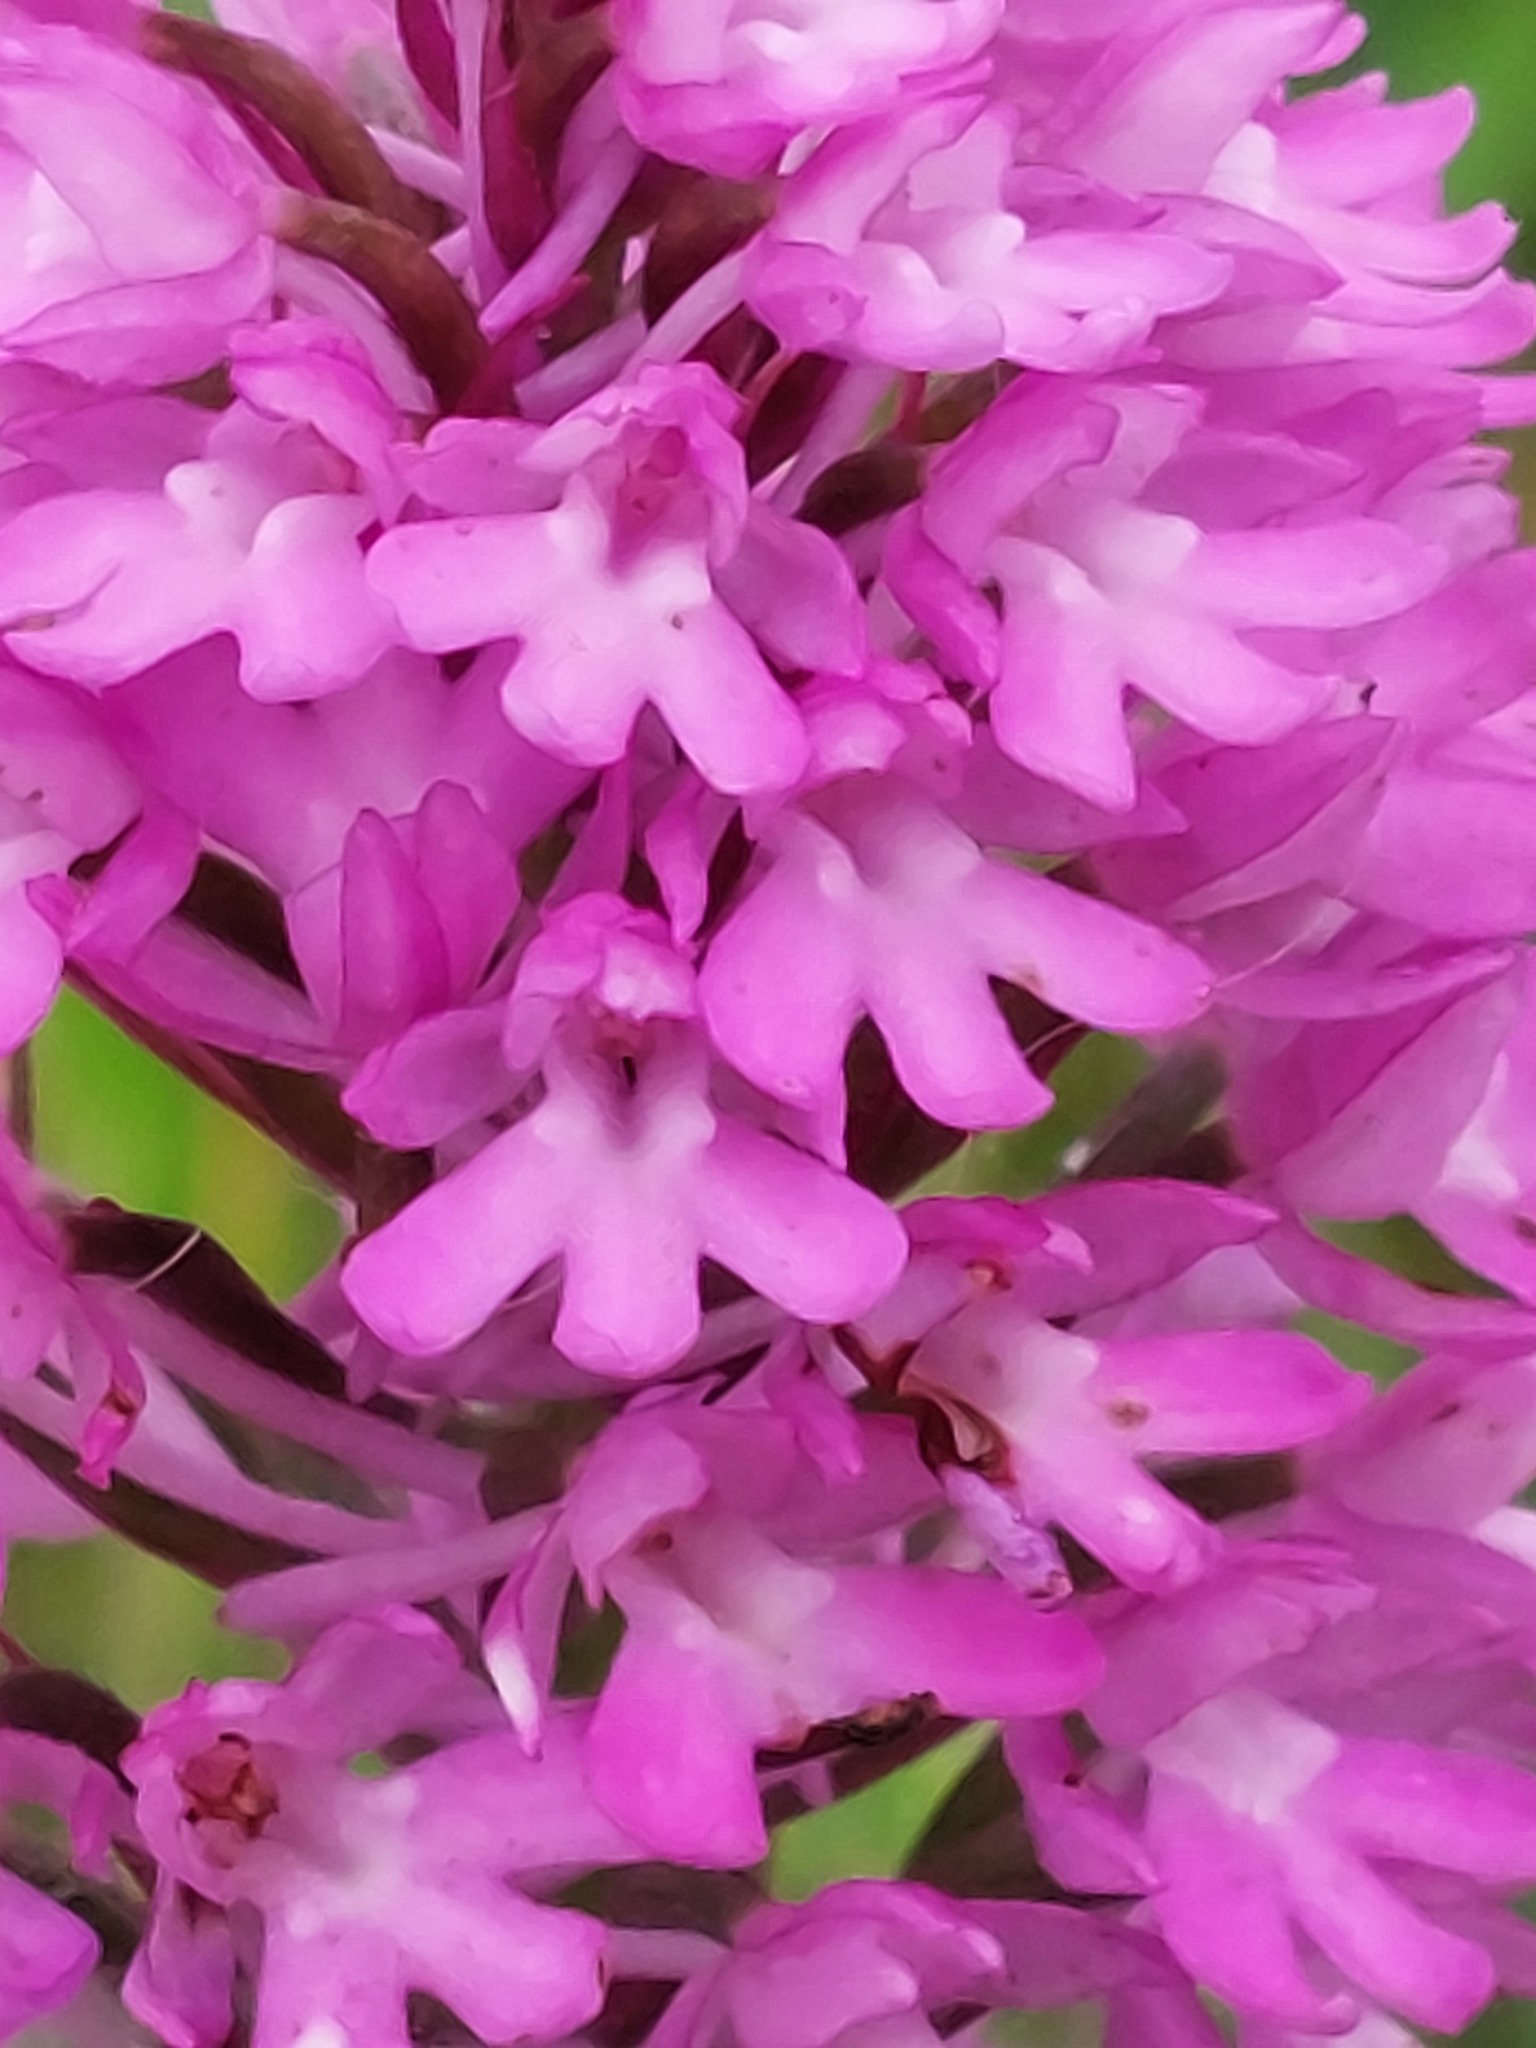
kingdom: Plantae
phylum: Tracheophyta
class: Liliopsida
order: Asparagales
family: Orchidaceae
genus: Anacamptis
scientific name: Anacamptis pyramidalis
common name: Pyramidal orchid
